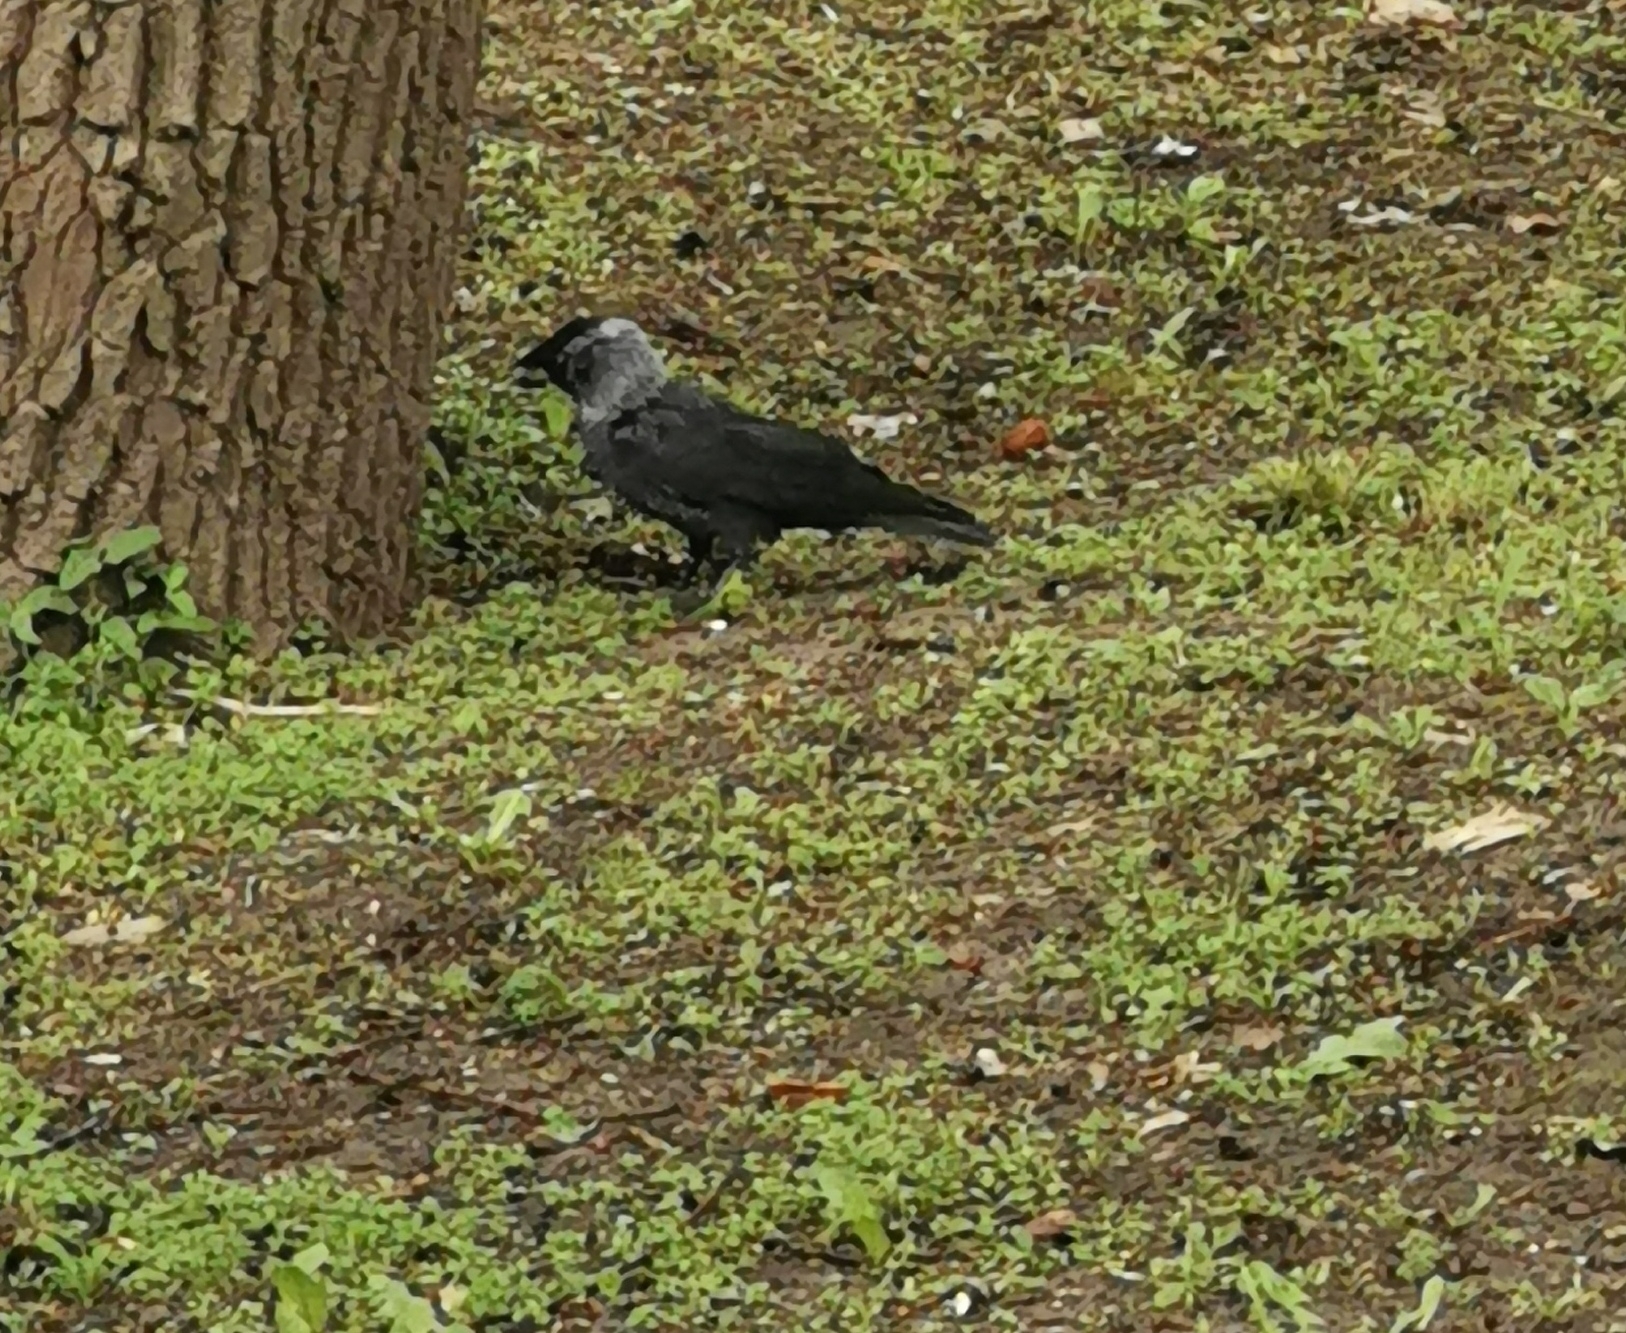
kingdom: Animalia
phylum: Chordata
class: Aves
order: Passeriformes
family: Corvidae
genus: Coloeus
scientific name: Coloeus monedula
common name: Western jackdaw
